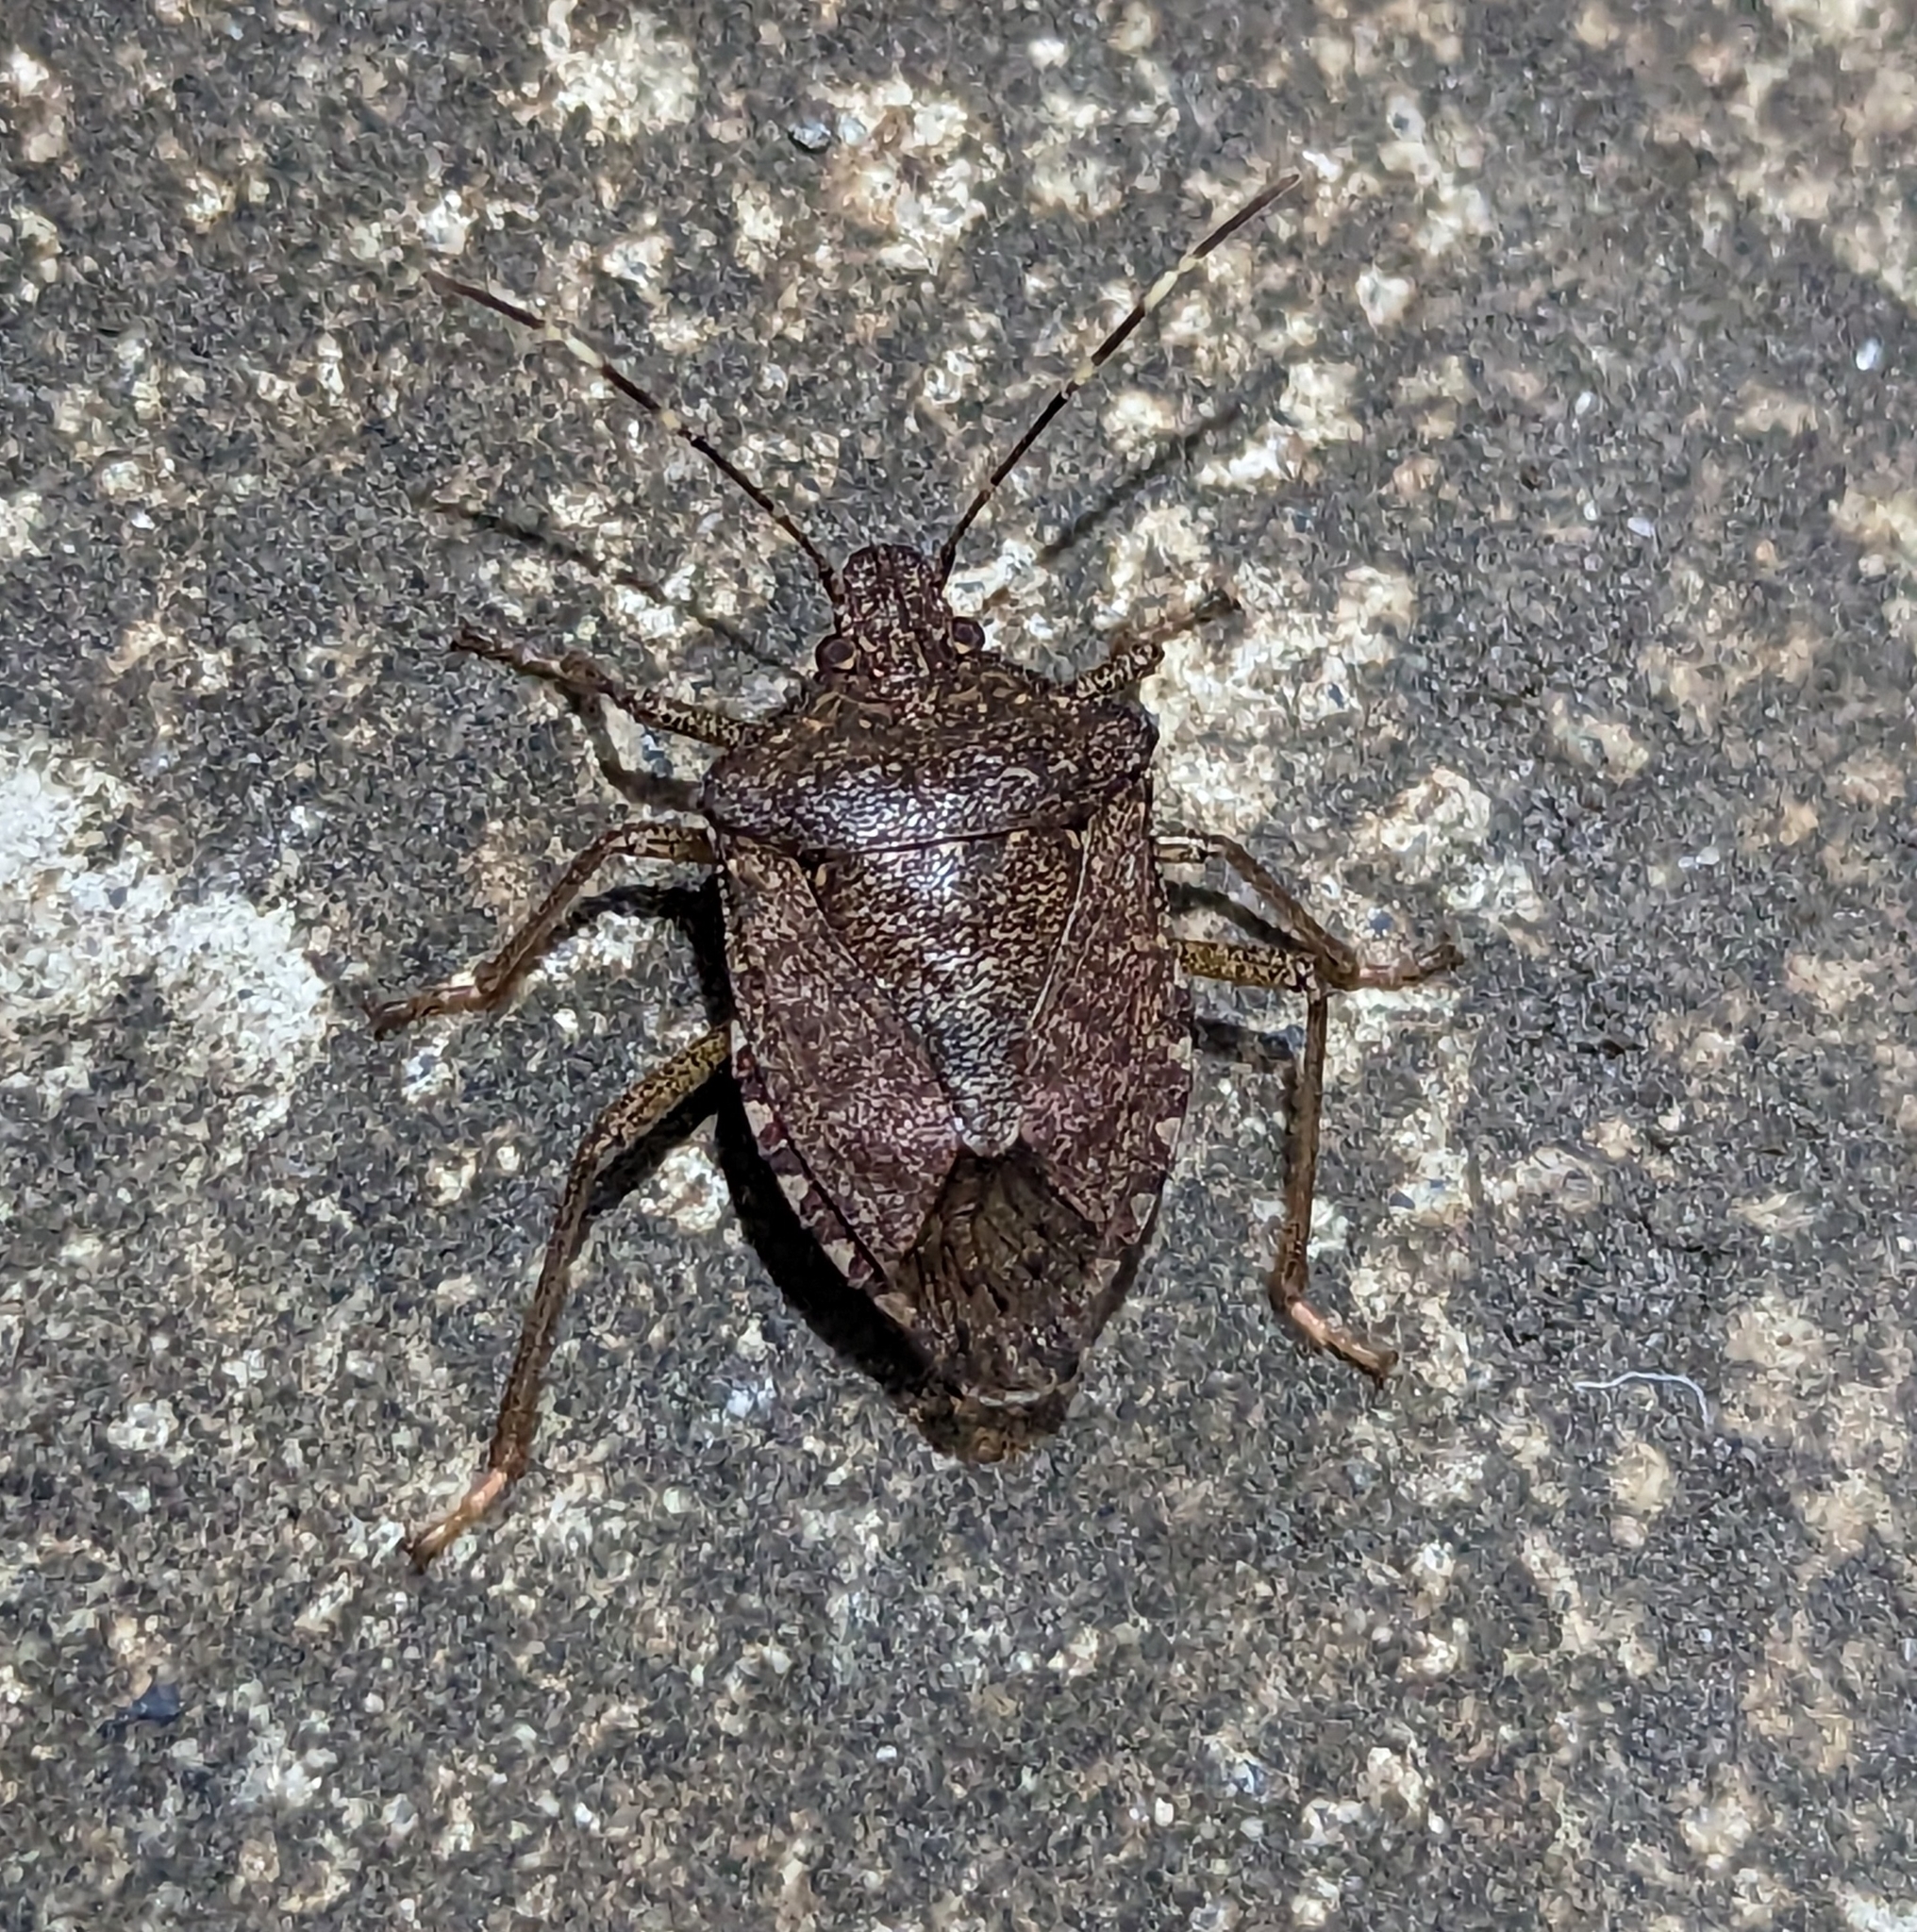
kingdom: Animalia
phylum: Arthropoda
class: Insecta
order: Hemiptera
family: Pentatomidae
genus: Halyomorpha
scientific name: Halyomorpha halys
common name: Brown marmorated stink bug
